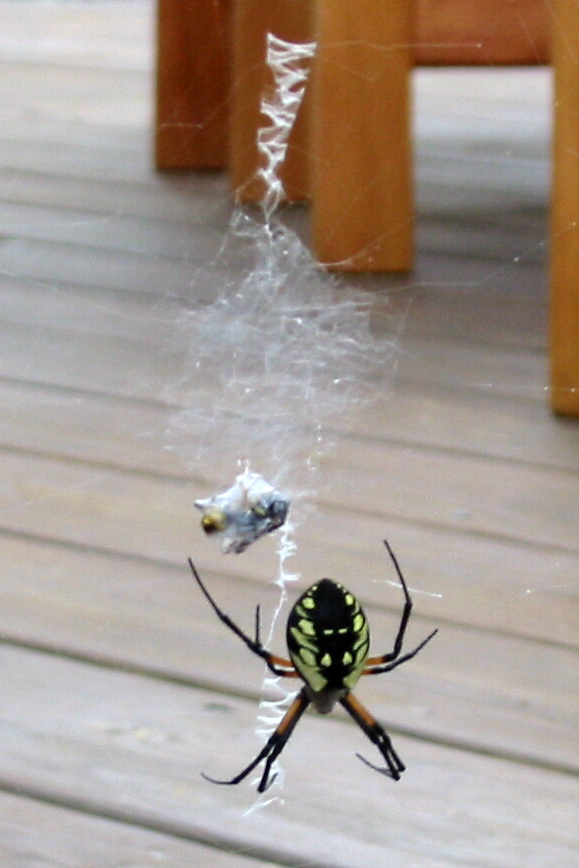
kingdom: Animalia
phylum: Arthropoda
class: Arachnida
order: Araneae
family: Araneidae
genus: Argiope
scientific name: Argiope aurantia
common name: Orb weavers
